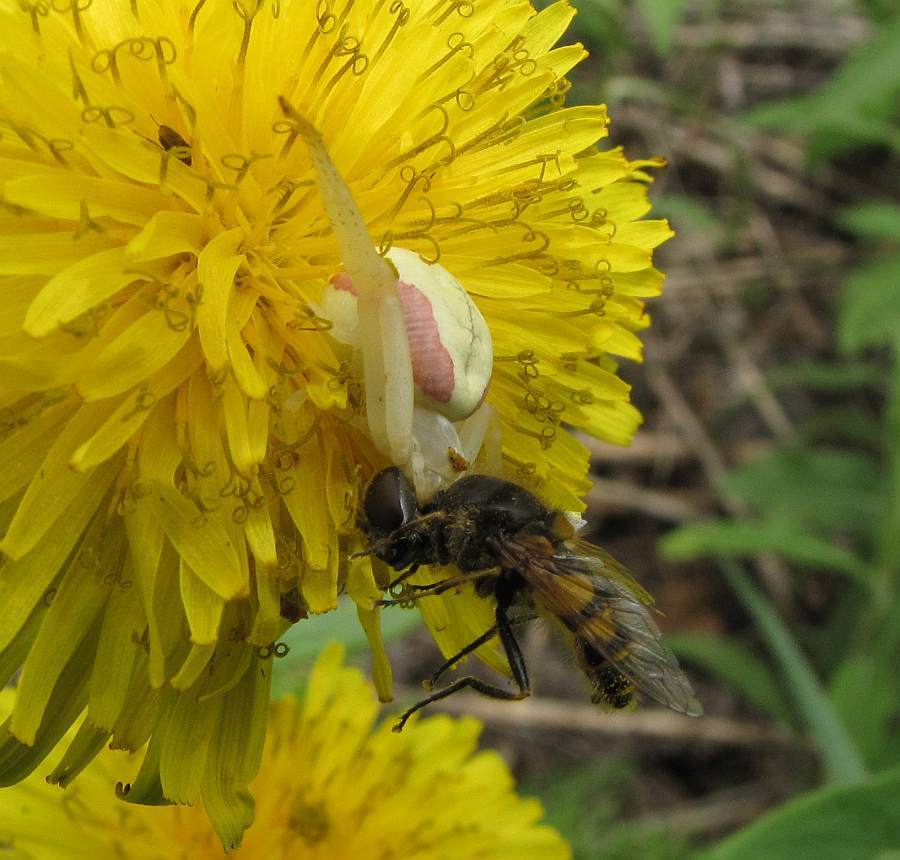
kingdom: Animalia
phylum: Arthropoda
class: Arachnida
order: Araneae
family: Thomisidae
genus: Misumena
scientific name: Misumena vatia
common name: Goldenrod crab spider
